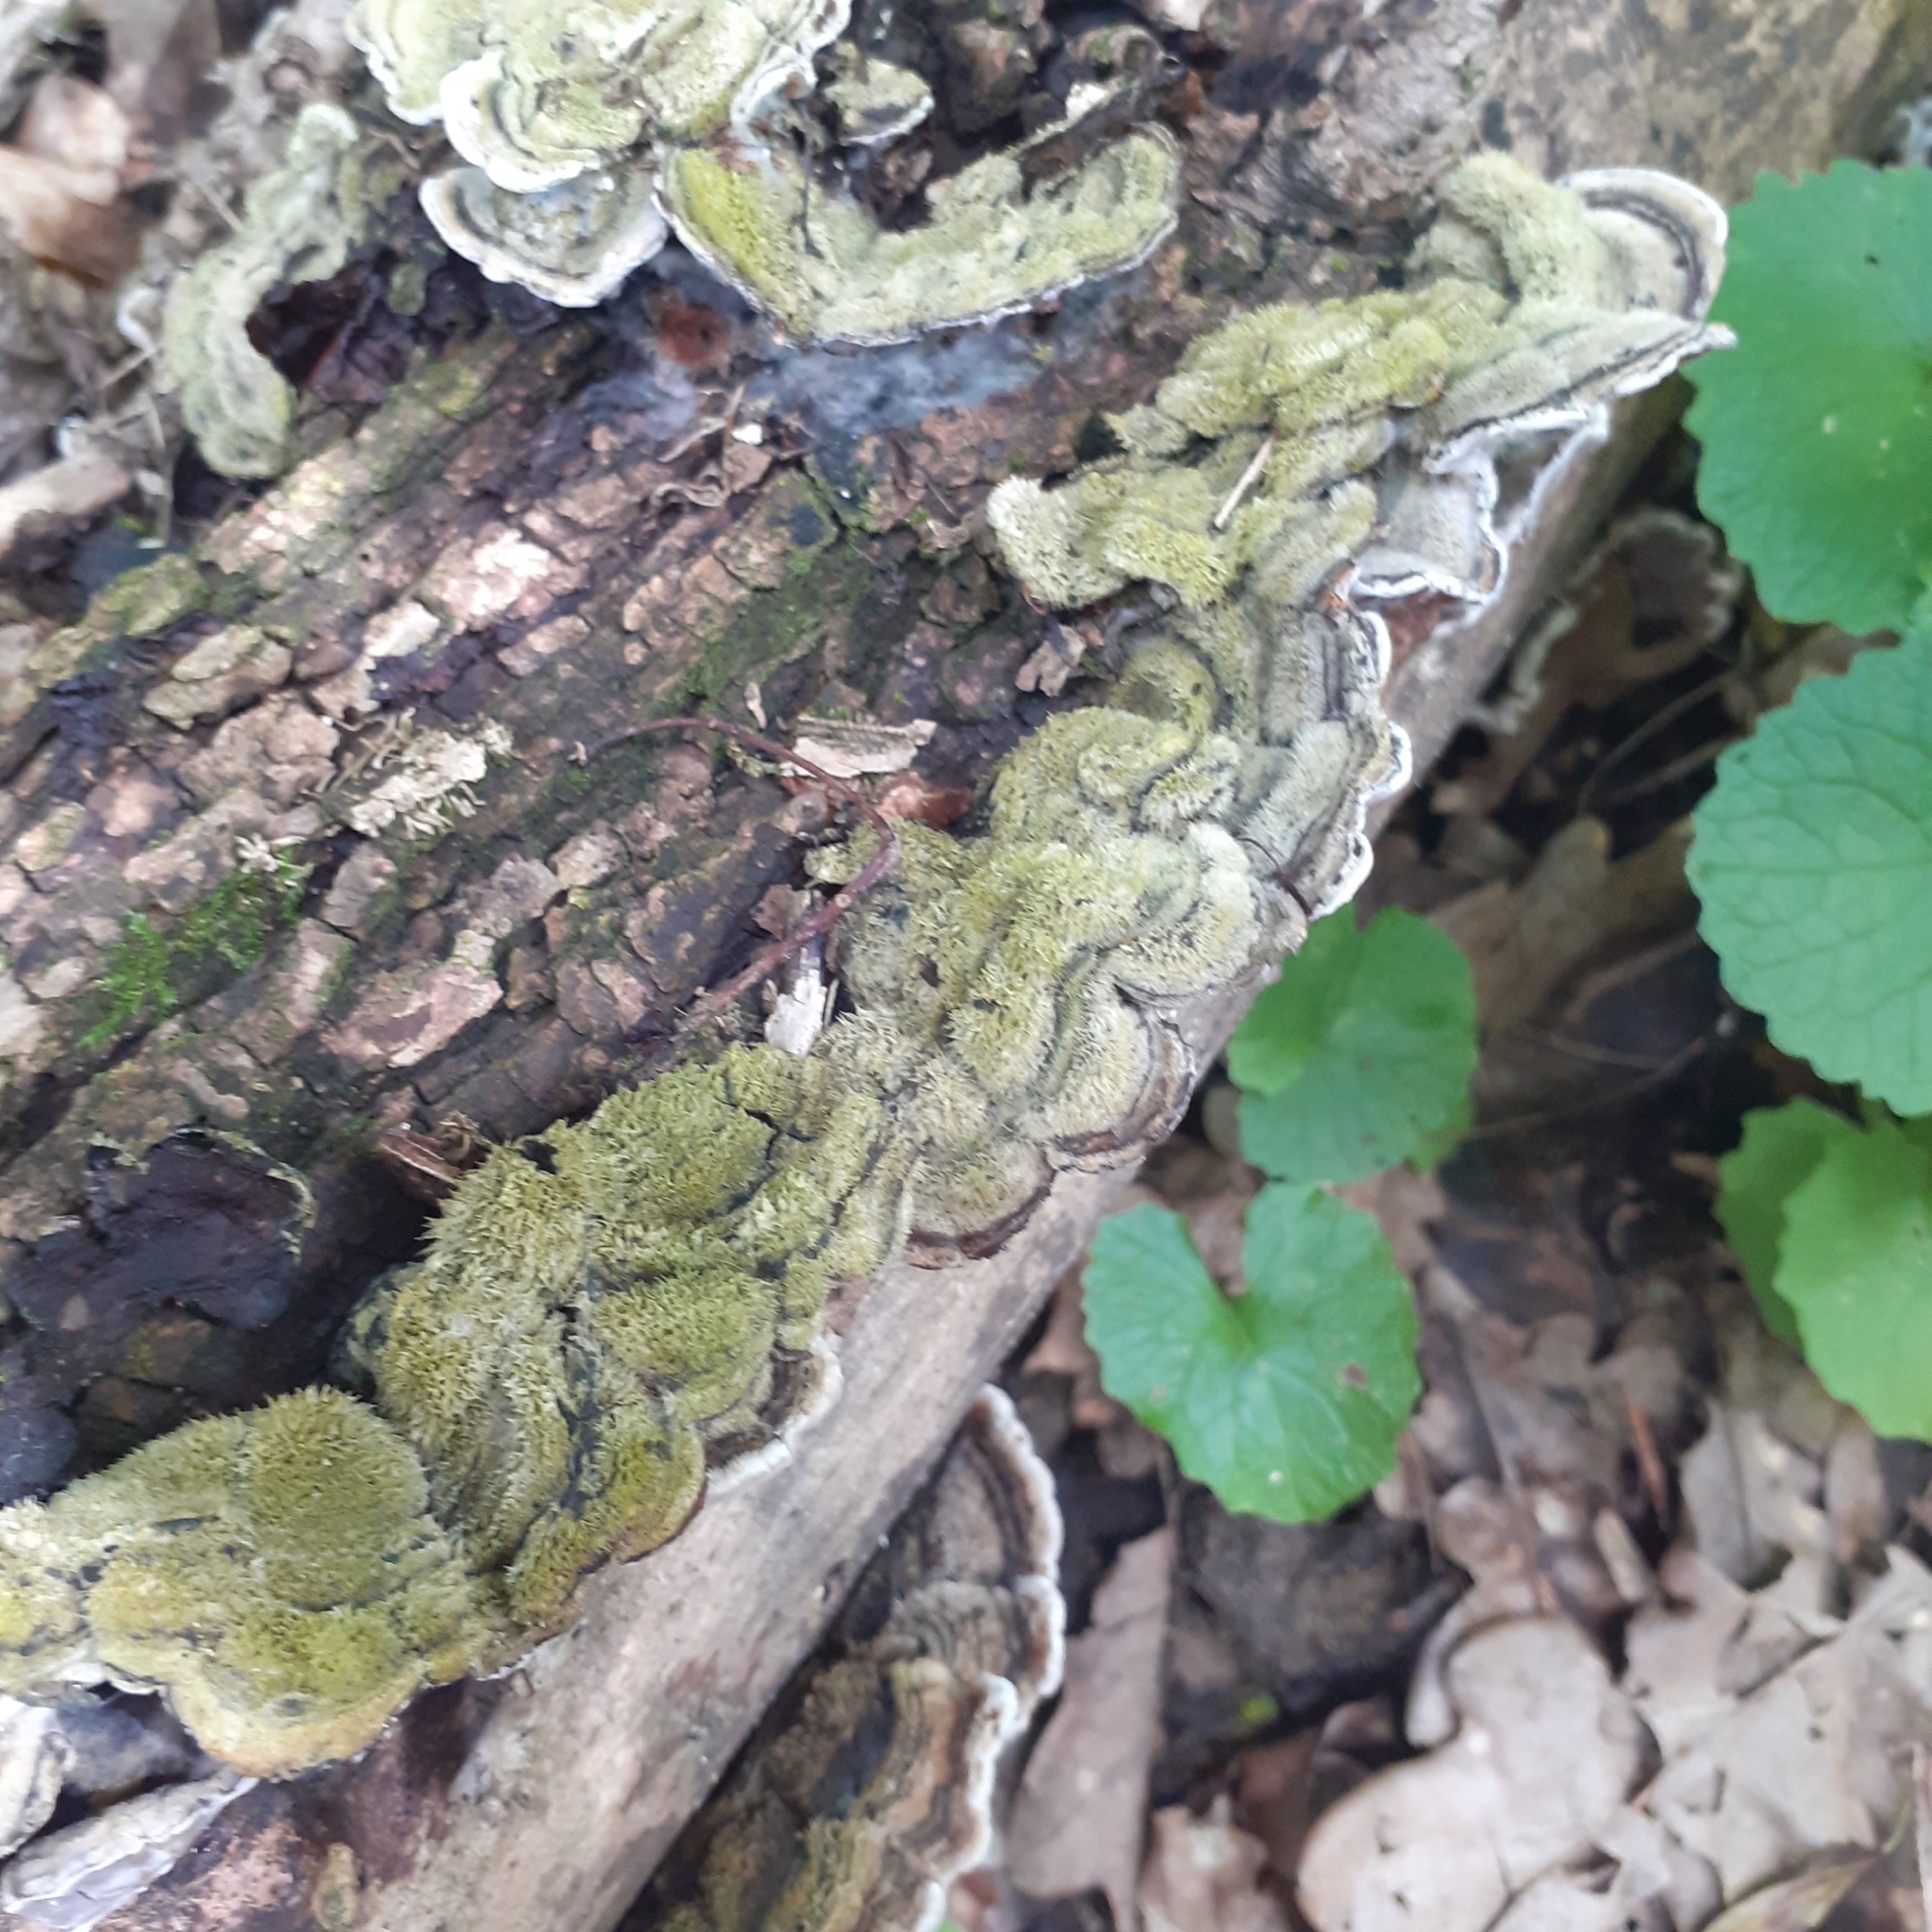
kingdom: Fungi
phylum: Basidiomycota
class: Agaricomycetes
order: Auriculariales
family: Auriculariaceae
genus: Auricularia
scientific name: Auricularia mesenterica
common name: Tripe fungus
